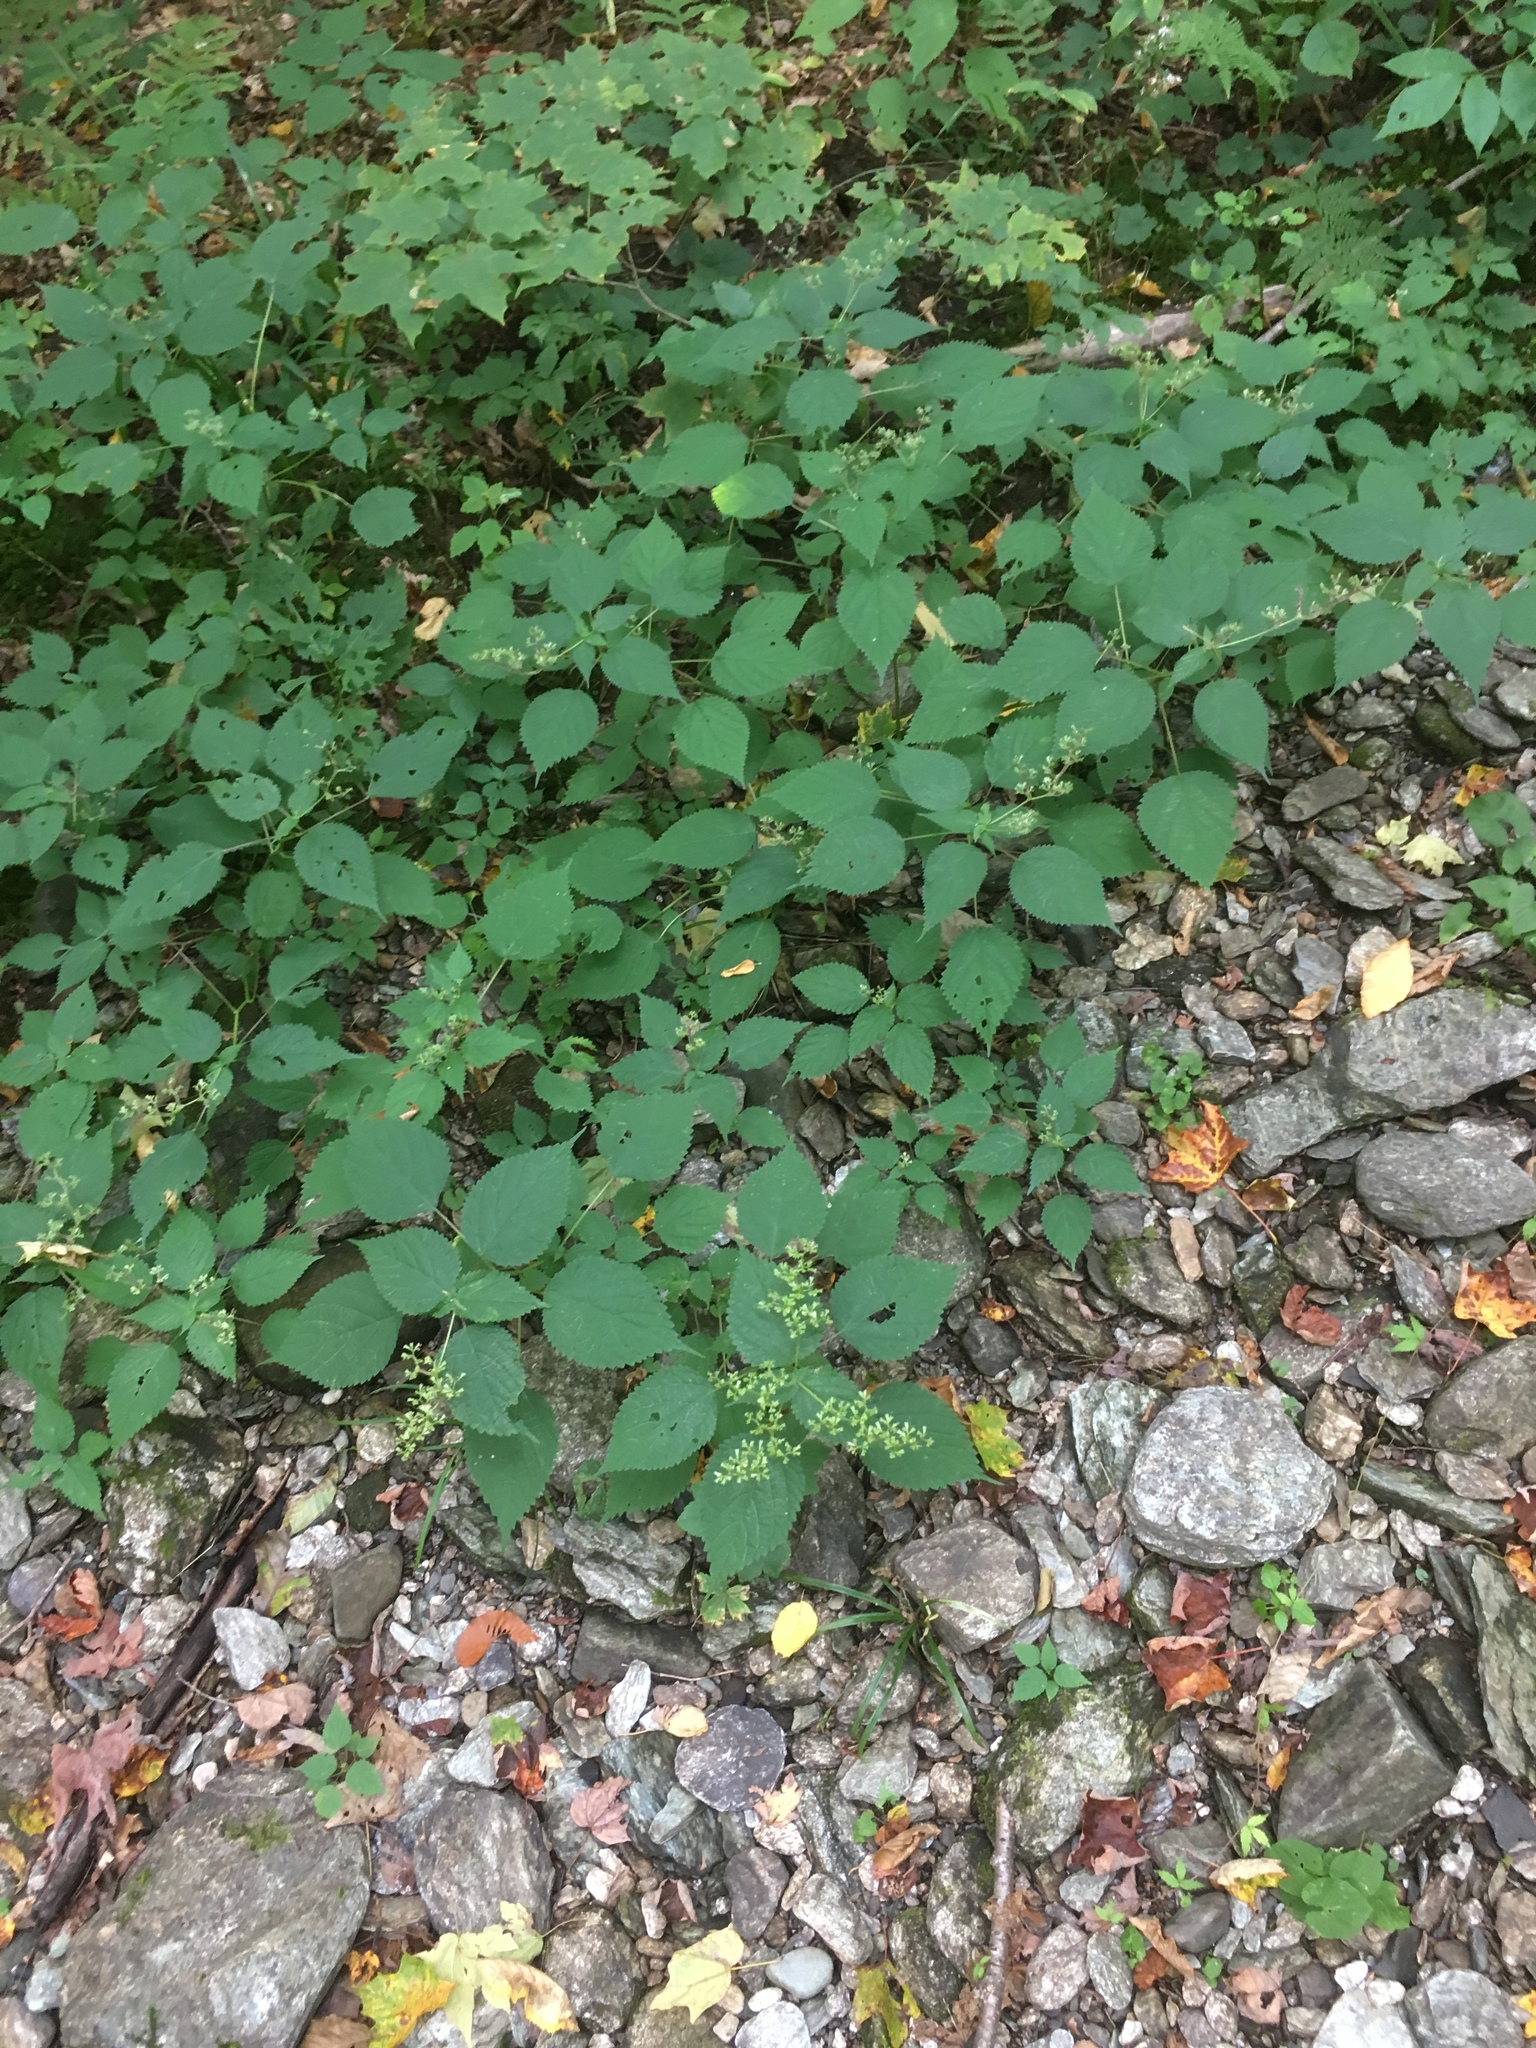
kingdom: Plantae
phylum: Tracheophyta
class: Magnoliopsida
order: Rosales
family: Urticaceae
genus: Laportea
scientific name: Laportea canadensis
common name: Canada nettle
